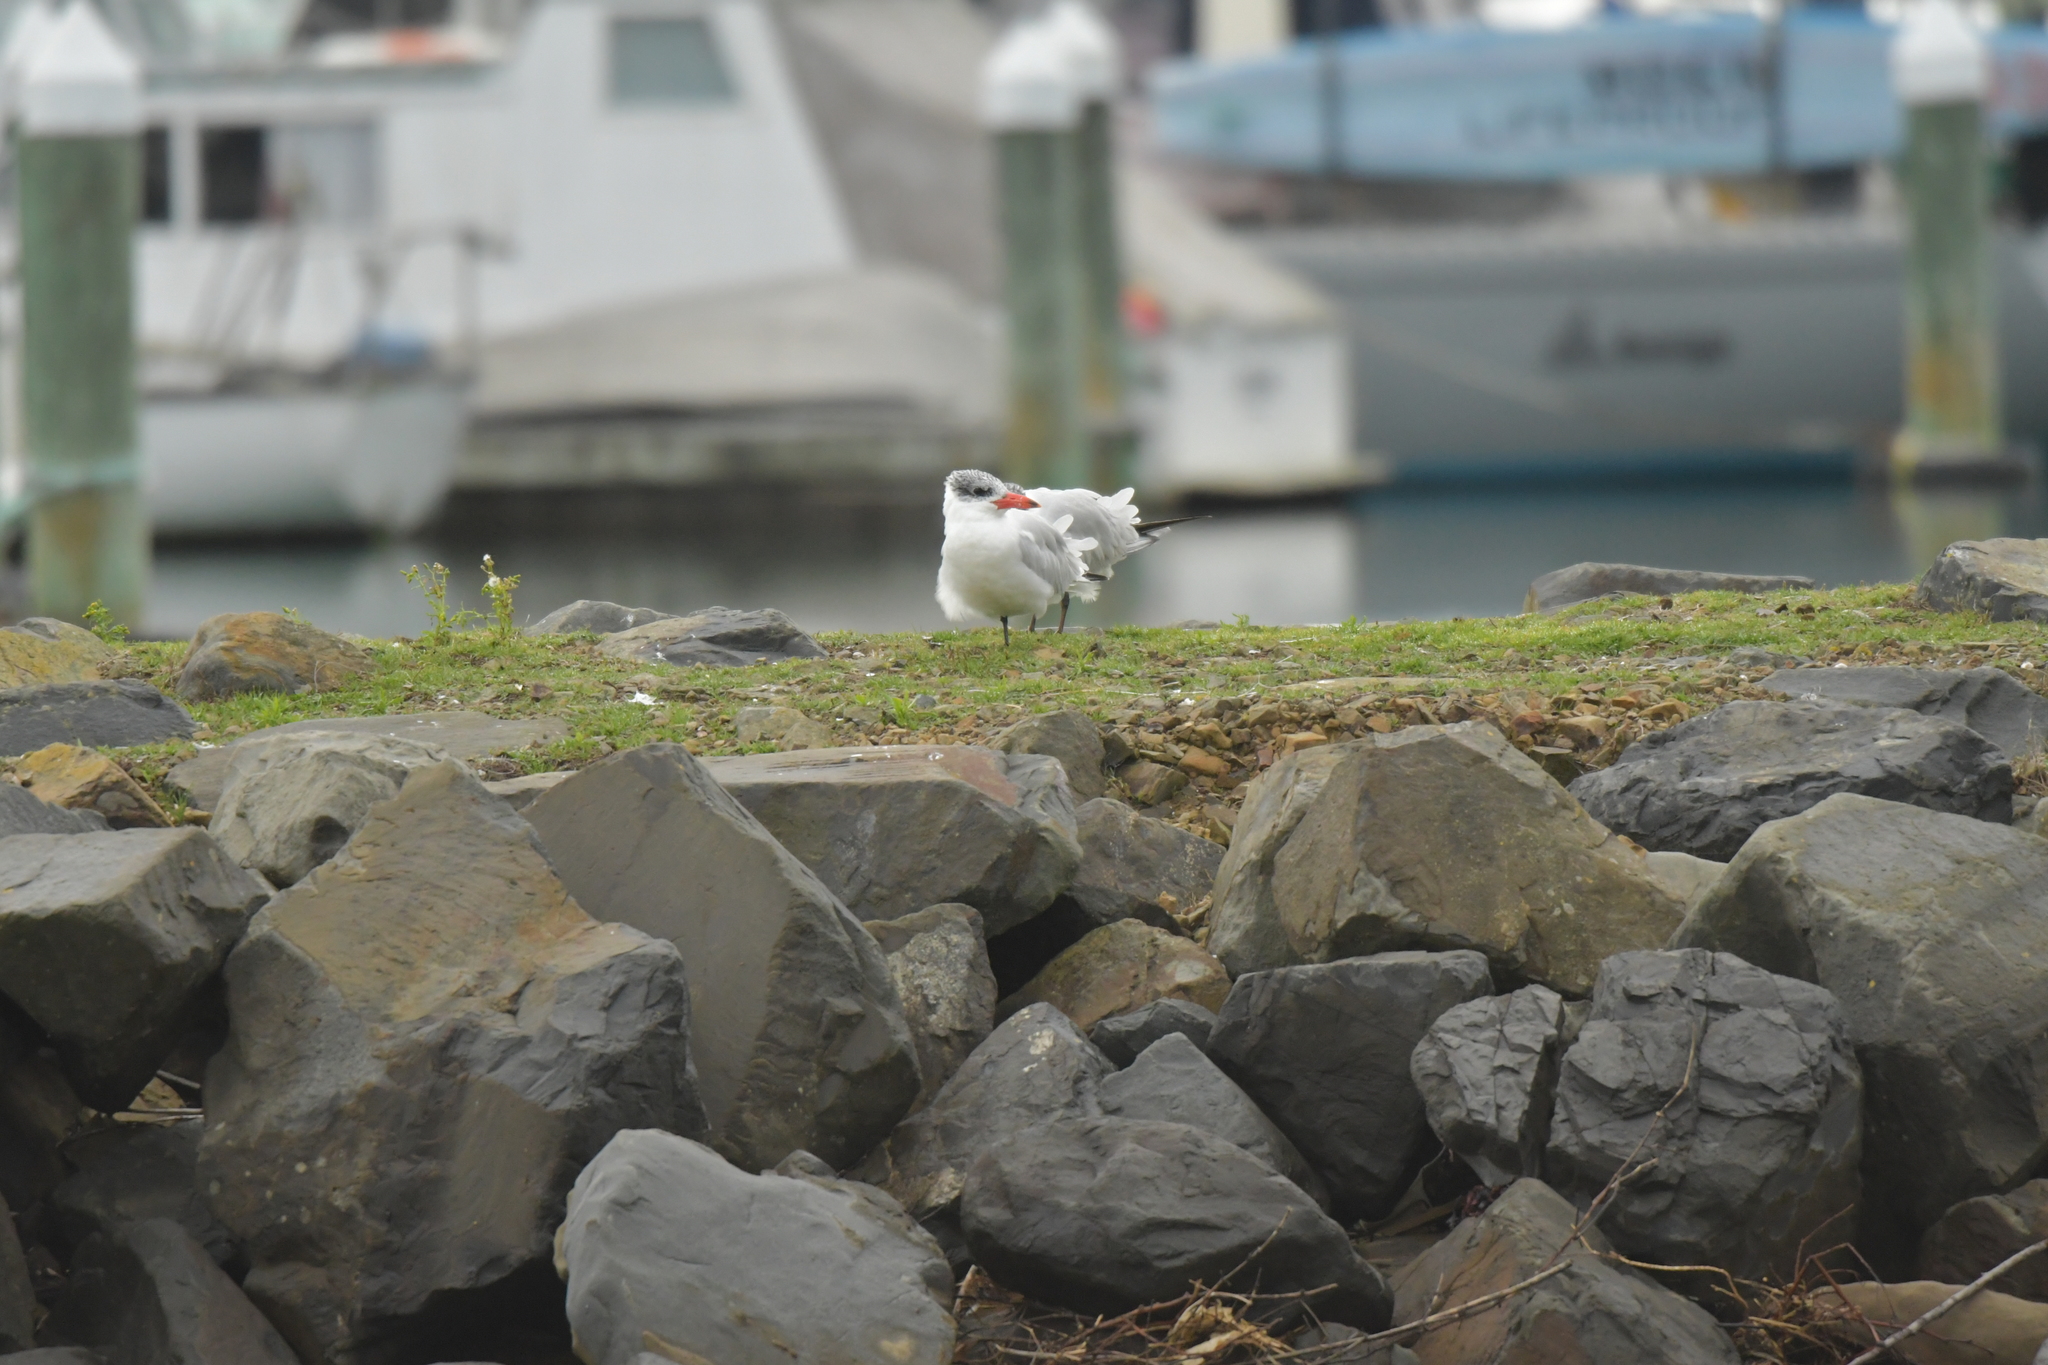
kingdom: Animalia
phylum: Chordata
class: Aves
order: Charadriiformes
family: Laridae
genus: Hydroprogne
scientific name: Hydroprogne caspia
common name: Caspian tern
